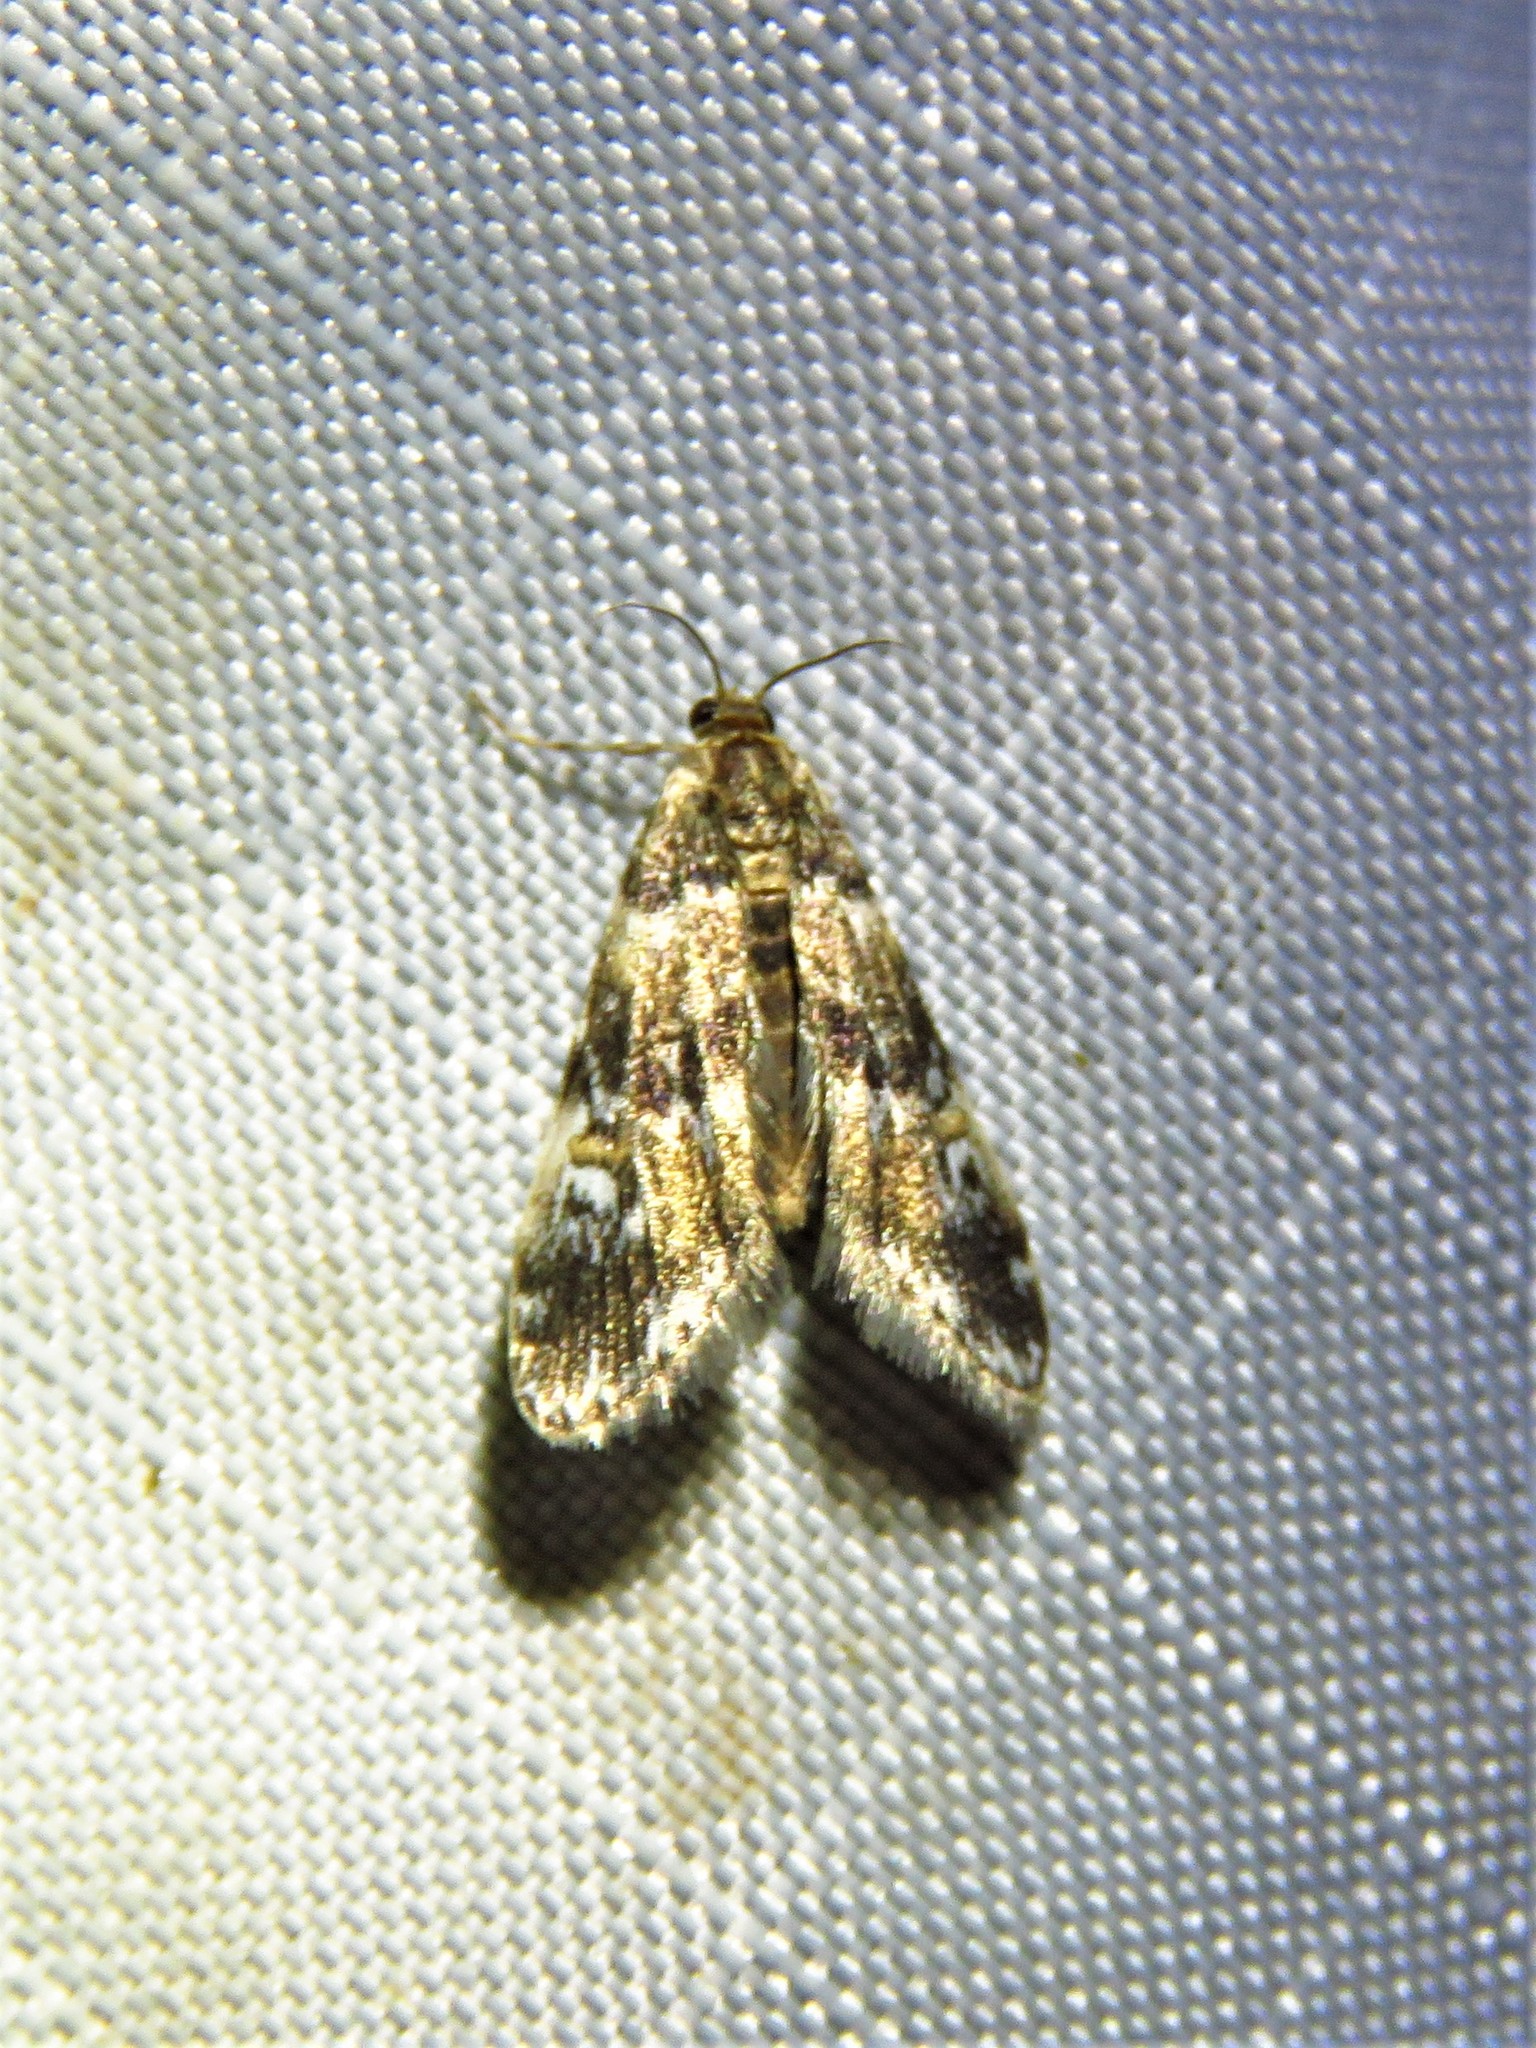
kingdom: Animalia
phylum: Arthropoda
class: Insecta
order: Lepidoptera
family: Crambidae
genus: Elophila
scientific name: Elophila obliteralis
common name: Waterlily leafcutter moth
